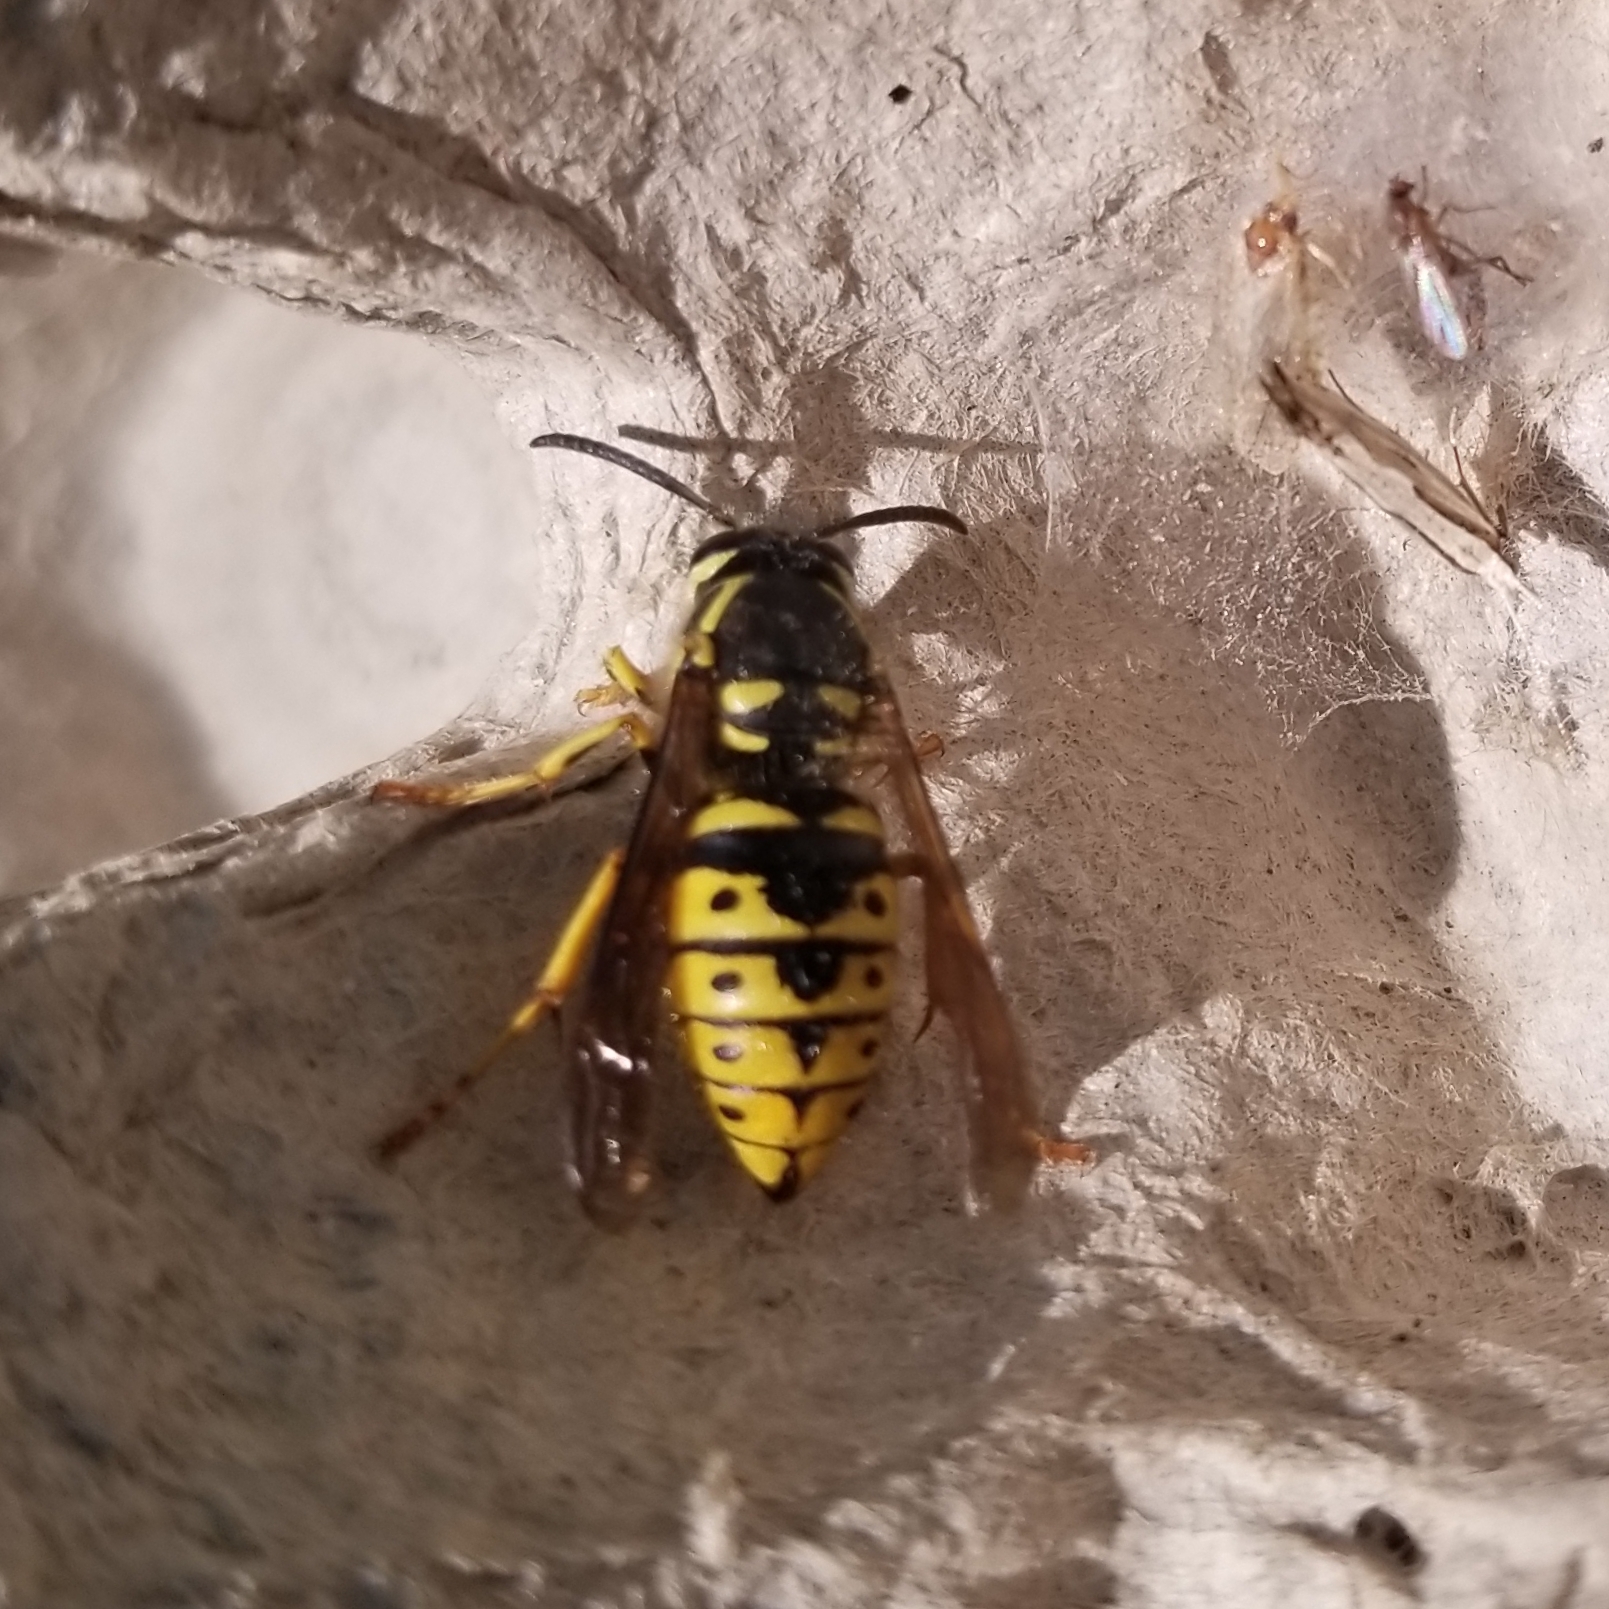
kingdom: Animalia
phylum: Arthropoda
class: Insecta
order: Hymenoptera
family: Vespidae
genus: Dolichovespula
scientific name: Dolichovespula arenaria
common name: Aerial yellowjacket
